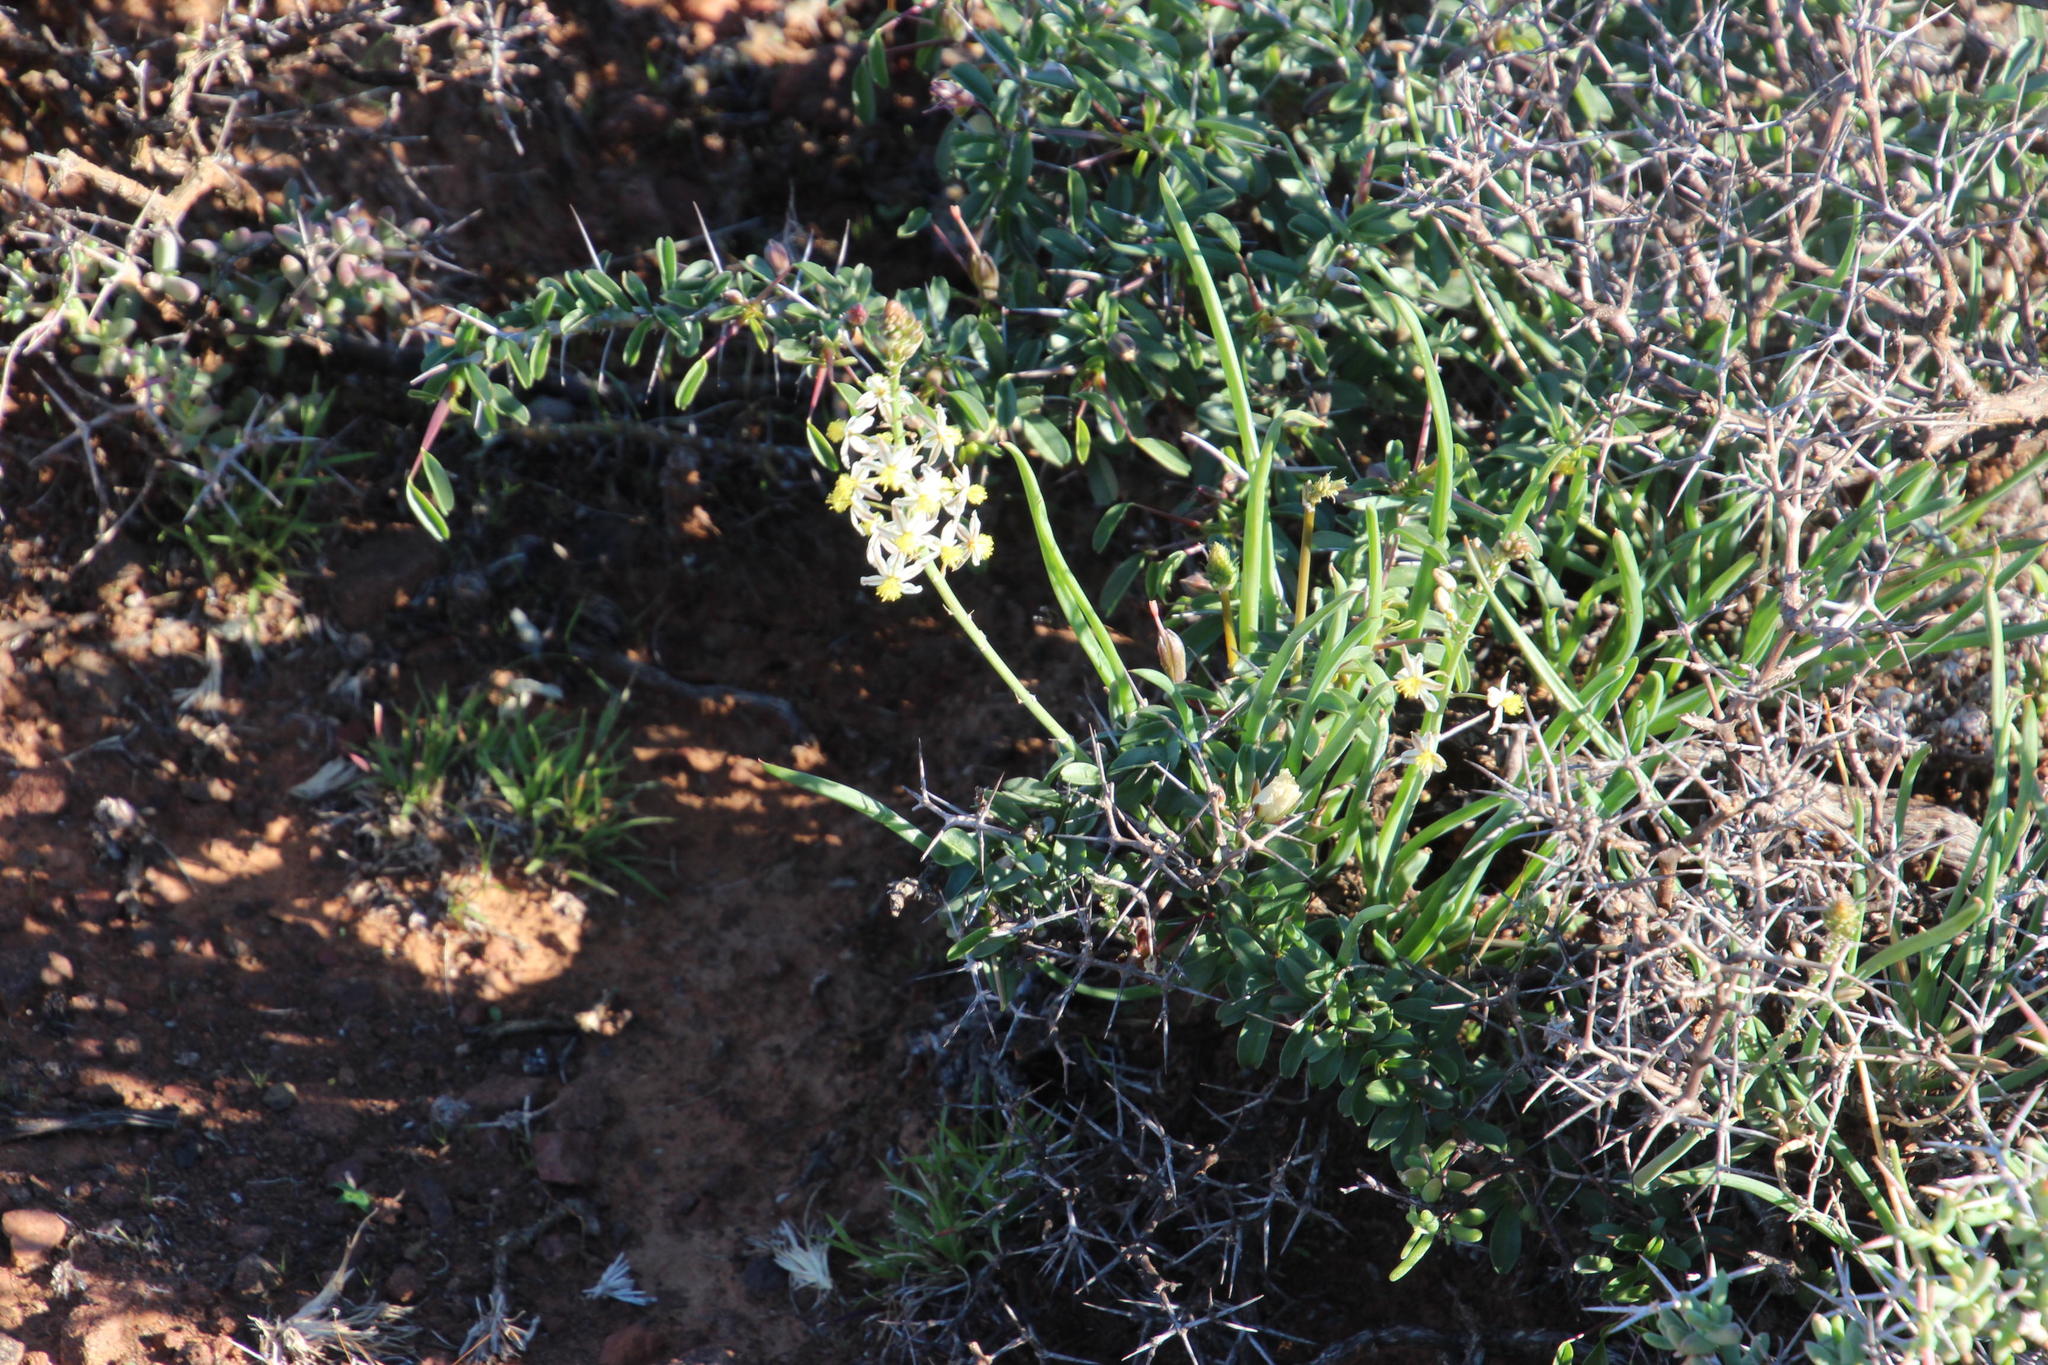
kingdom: Plantae
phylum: Tracheophyta
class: Liliopsida
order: Asparagales
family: Asphodelaceae
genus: Bulbine
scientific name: Bulbine frutescens
